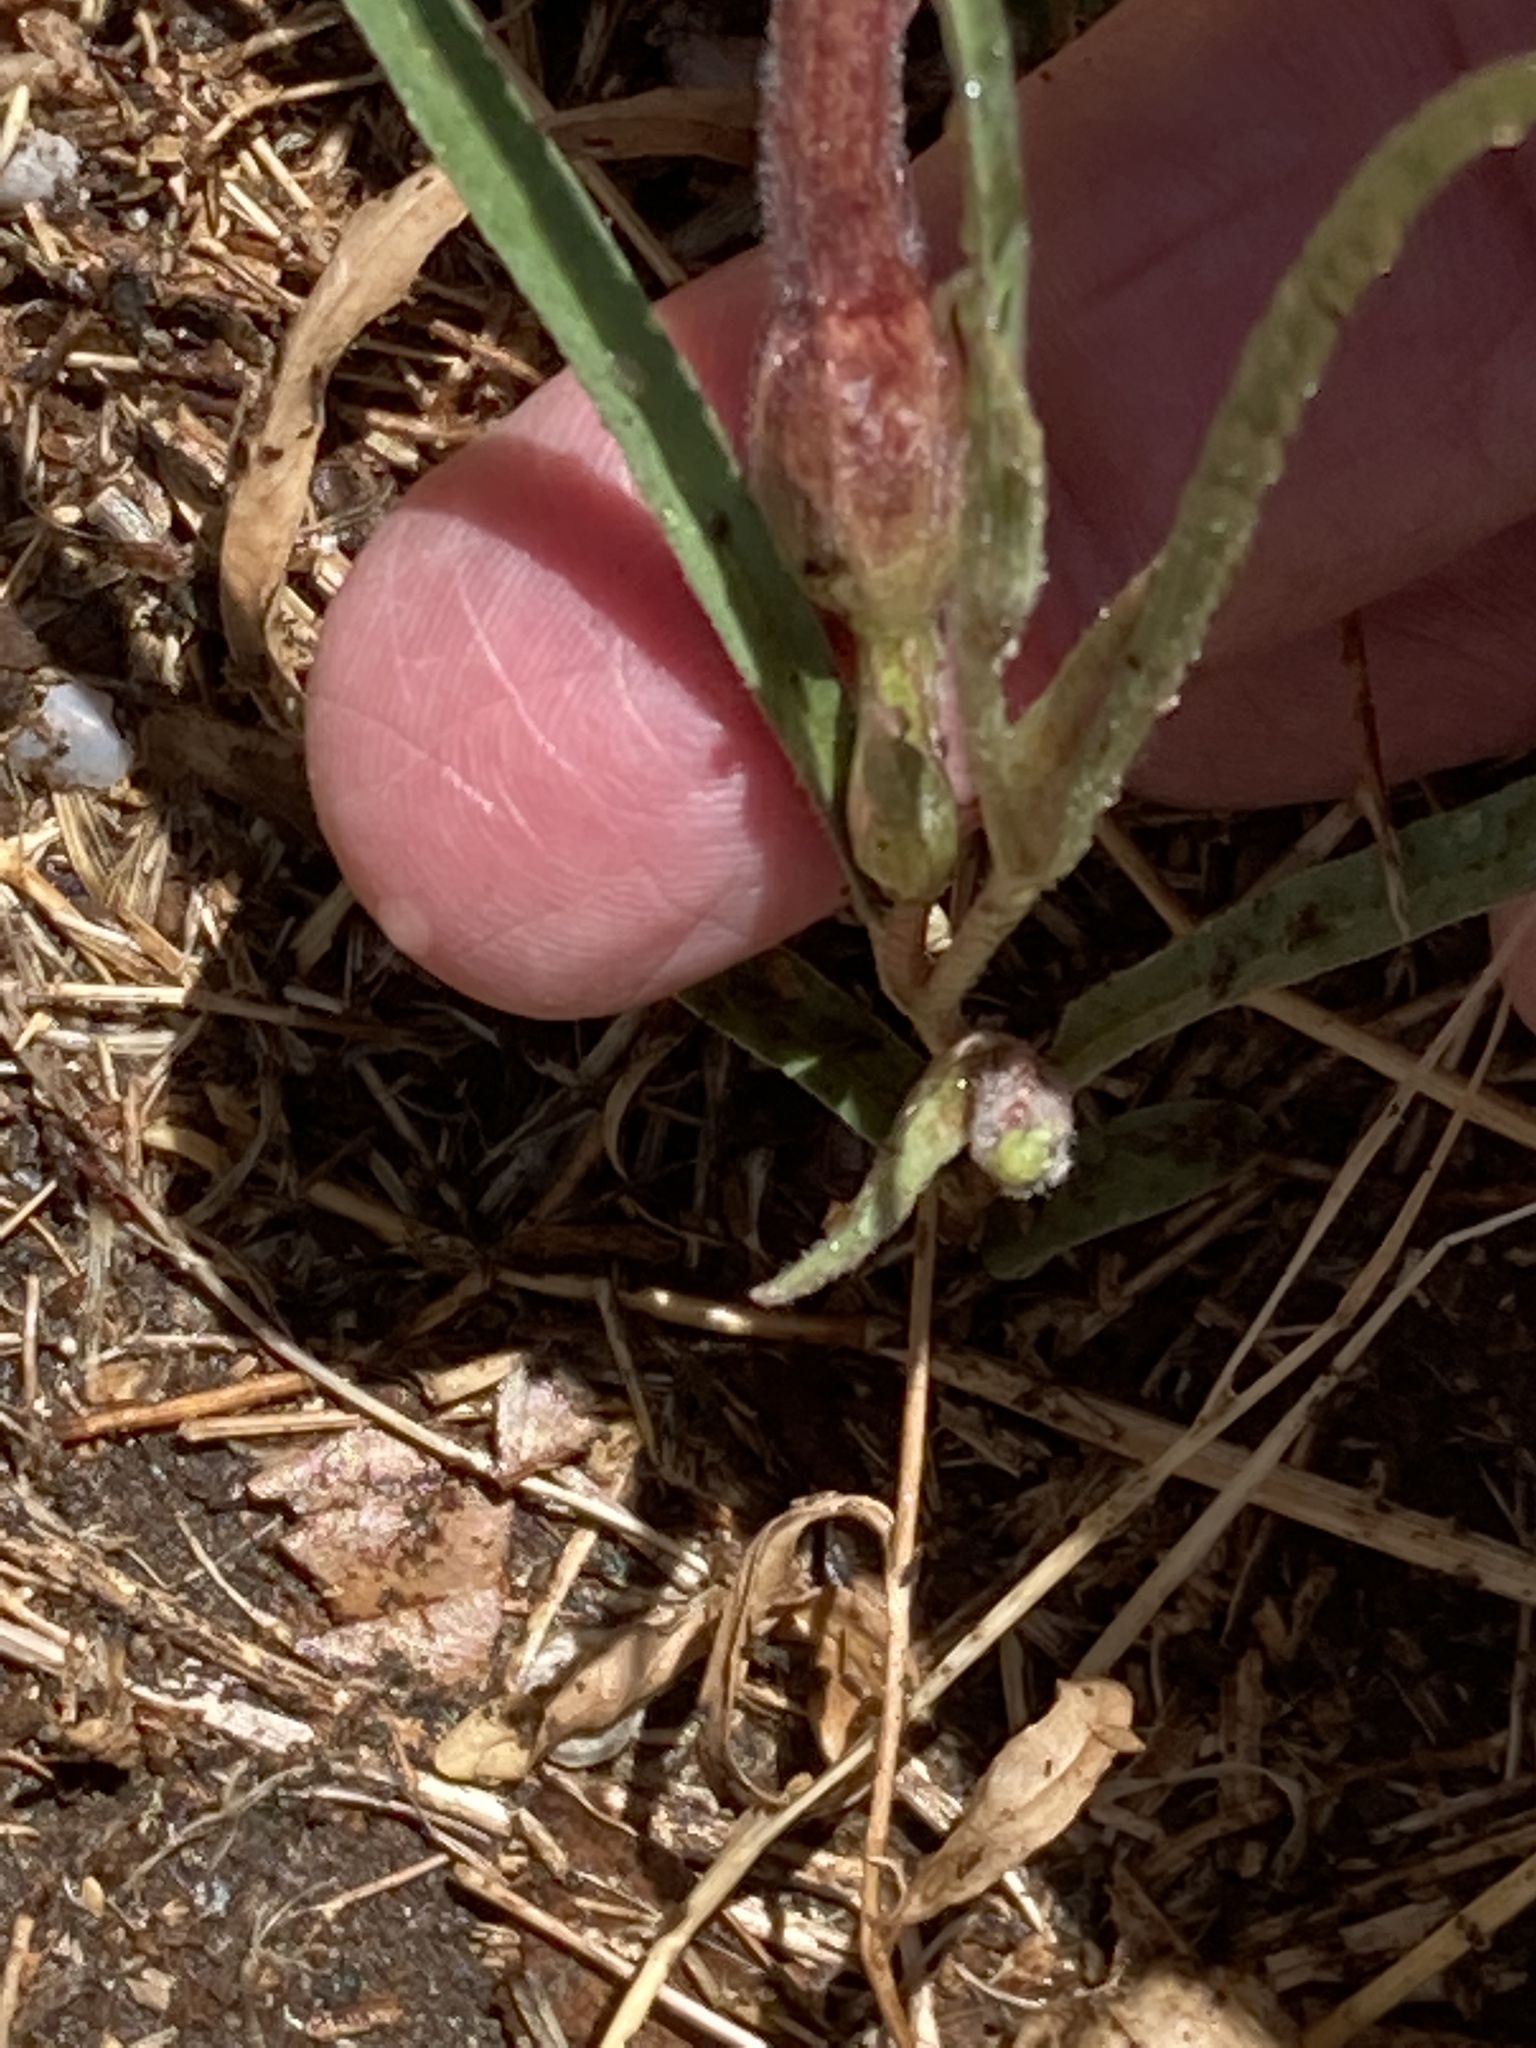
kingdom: Plantae
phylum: Tracheophyta
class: Magnoliopsida
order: Piperales
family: Aristolochiaceae
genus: Aristolochia
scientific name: Aristolochia erecta
